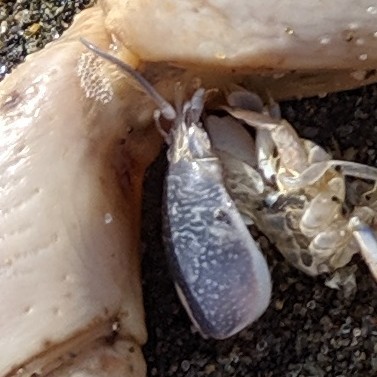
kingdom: Animalia
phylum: Arthropoda
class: Malacostraca
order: Decapoda
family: Hippidae
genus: Emerita
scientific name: Emerita analoga
